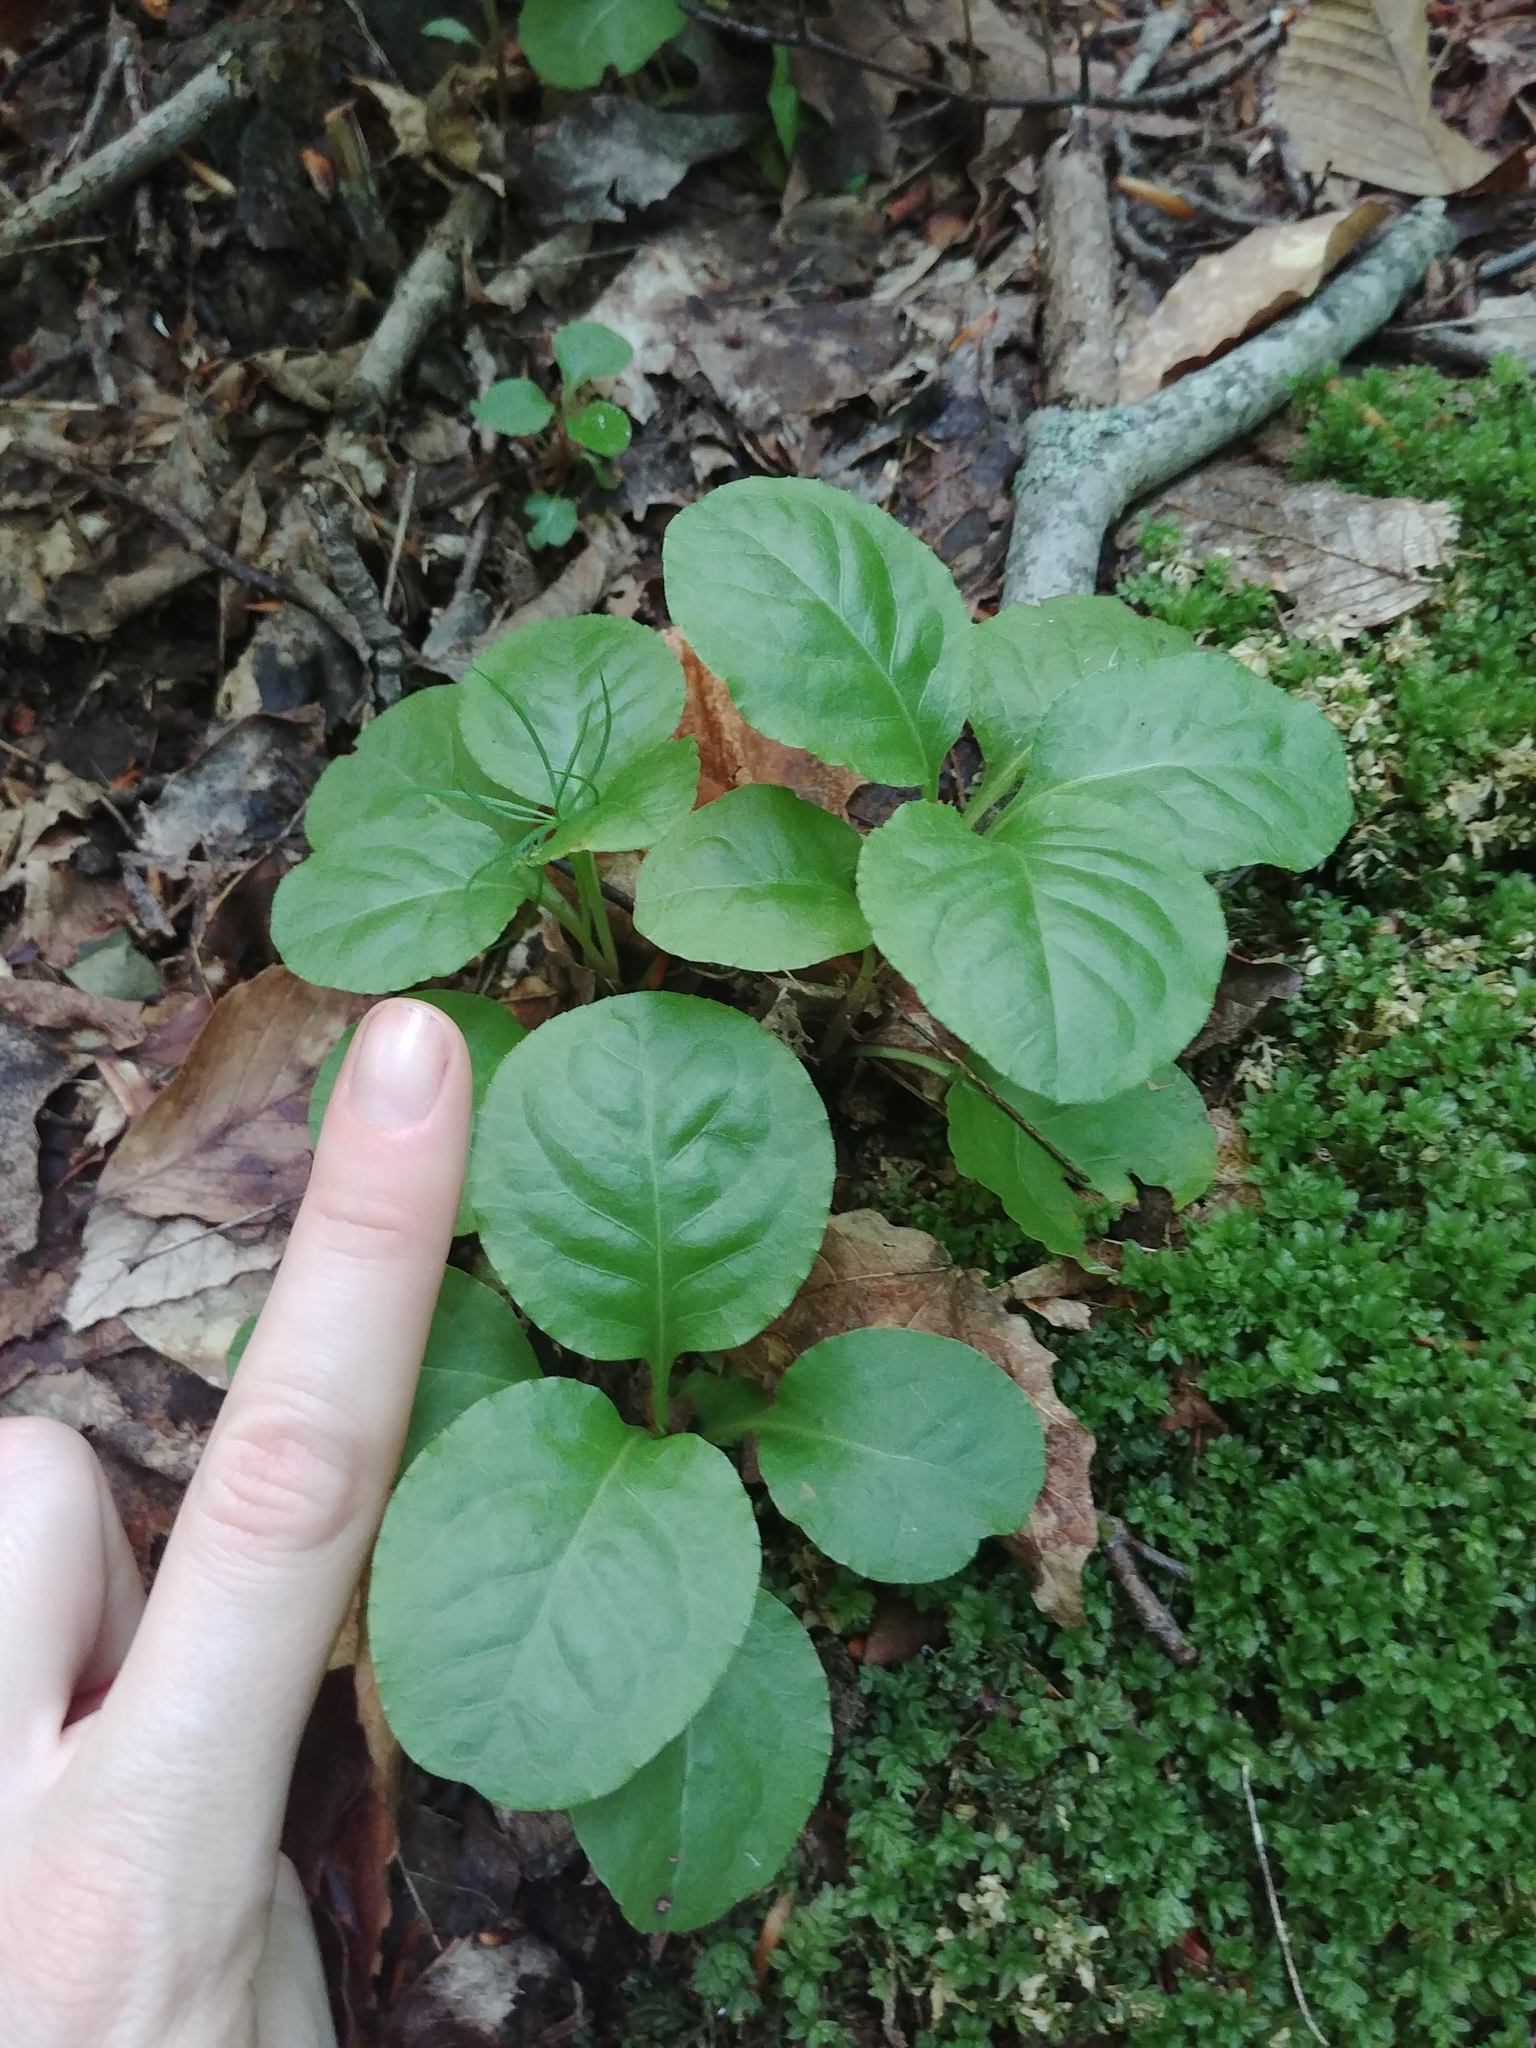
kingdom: Plantae
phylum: Tracheophyta
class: Magnoliopsida
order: Ericales
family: Ericaceae
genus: Pyrola
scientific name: Pyrola elliptica
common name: Shinleaf
